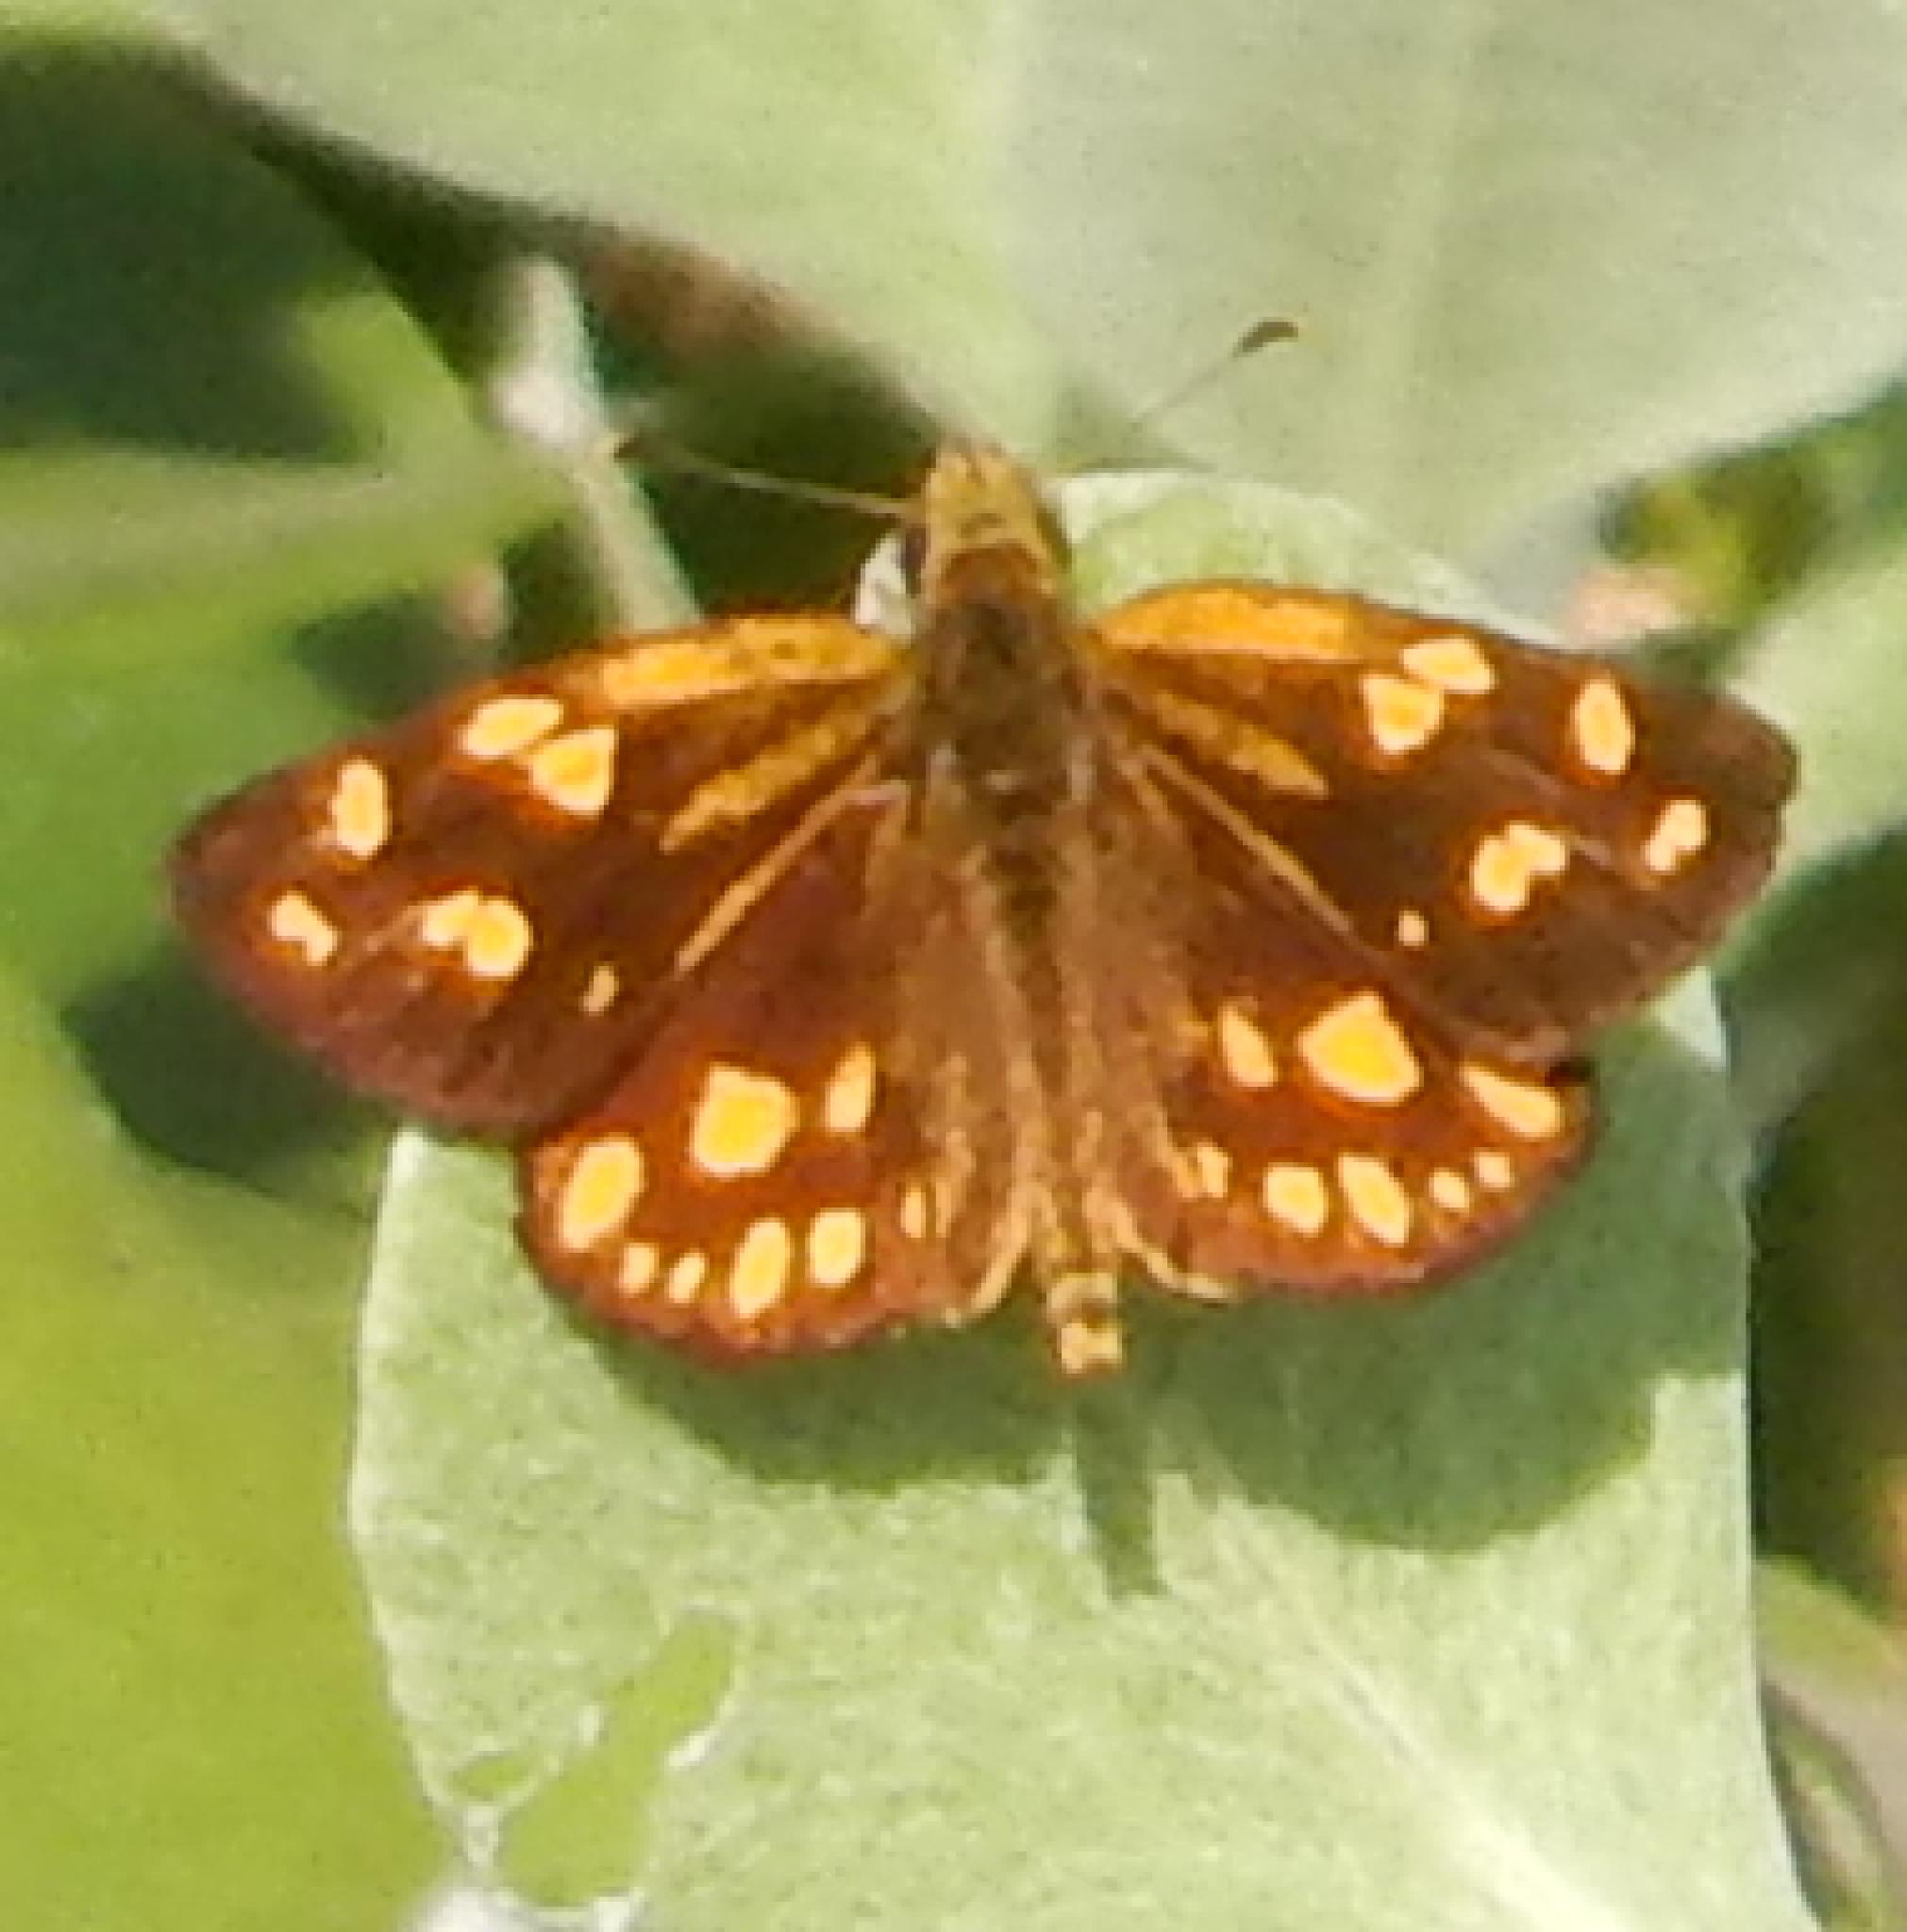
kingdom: Animalia
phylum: Arthropoda
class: Insecta
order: Lepidoptera
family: Hesperiidae
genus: Metisella
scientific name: Metisella metis
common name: Western gold-spotted sylph
